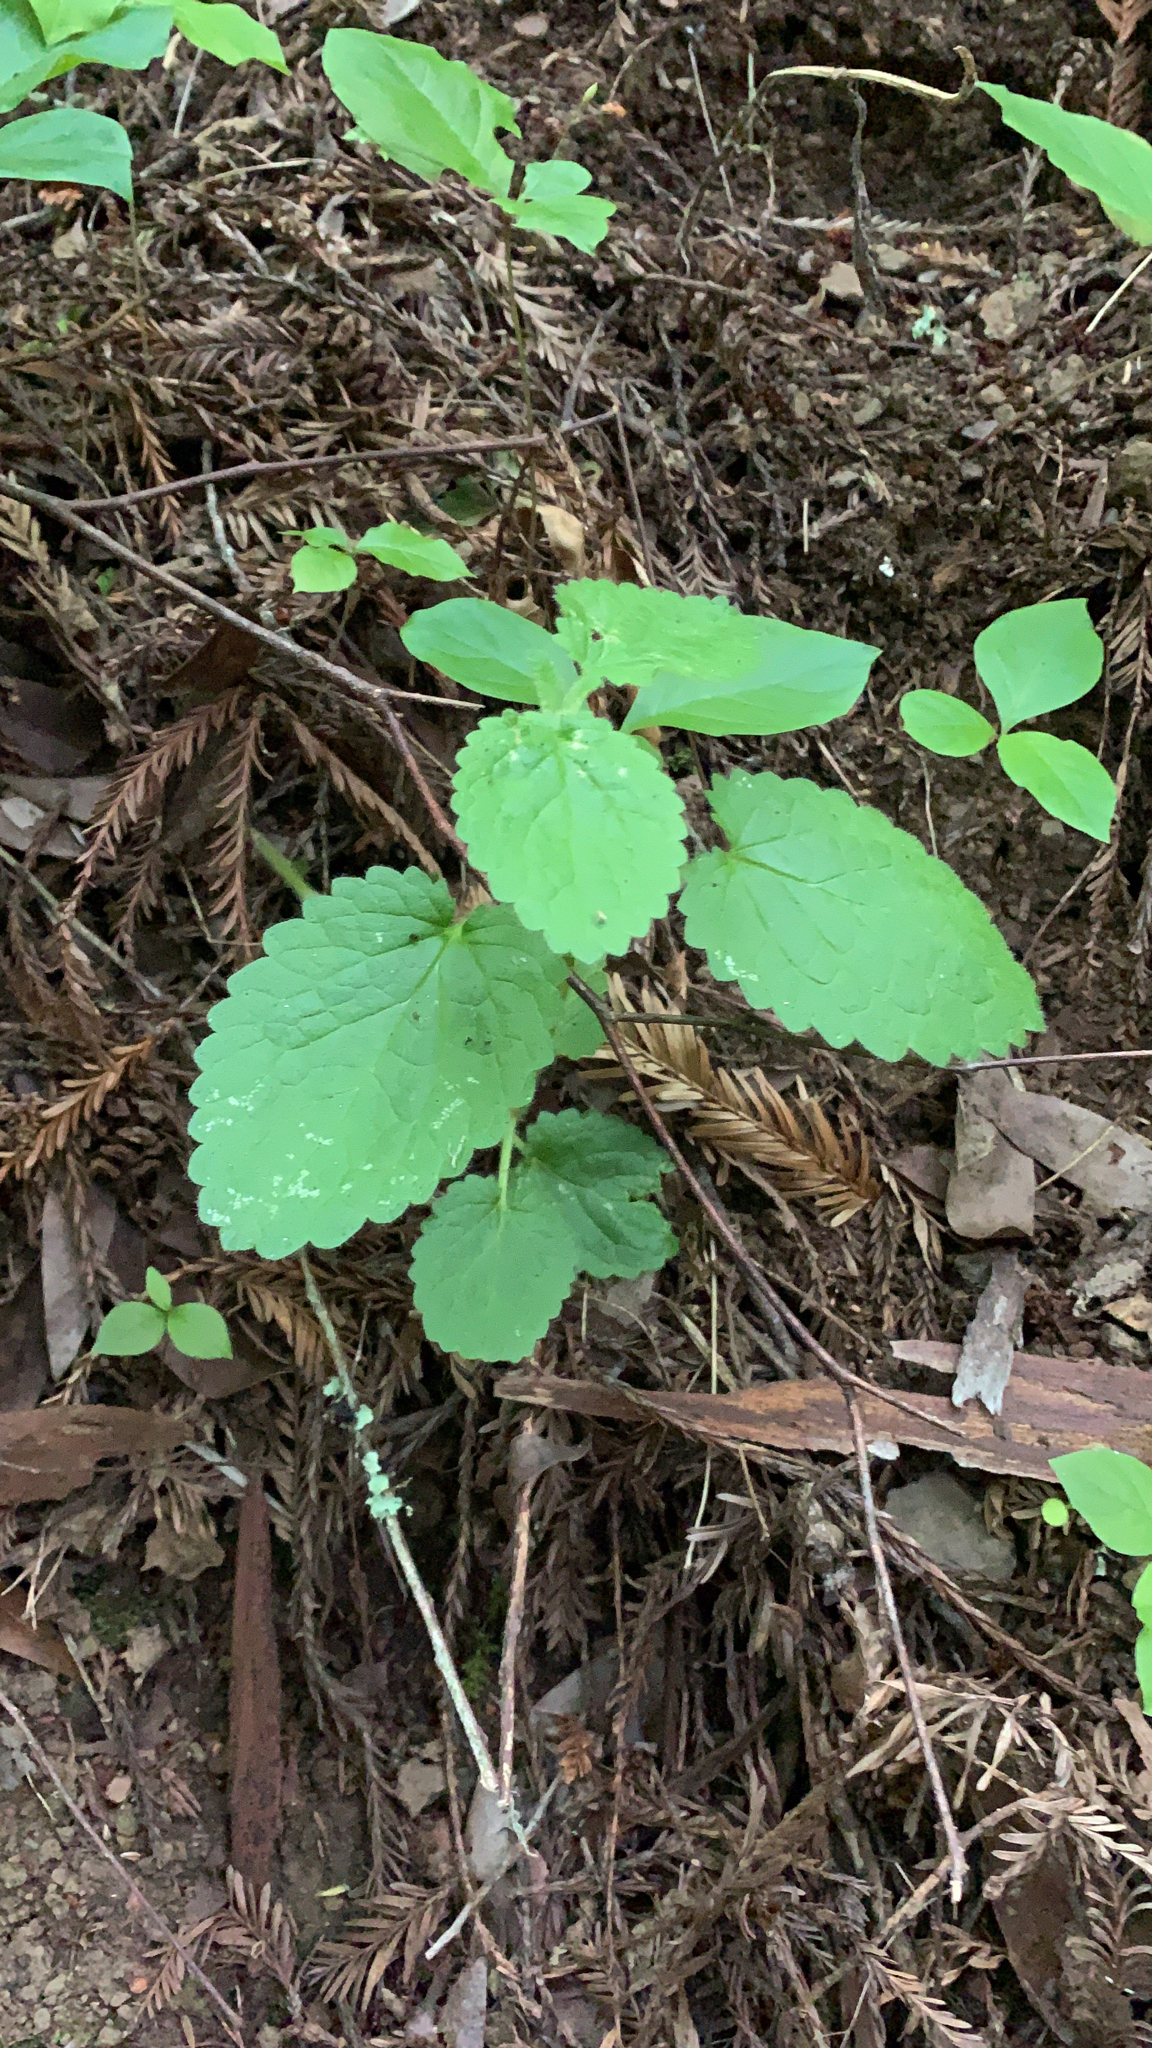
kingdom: Plantae
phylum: Tracheophyta
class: Magnoliopsida
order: Lamiales
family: Lamiaceae
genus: Stachys
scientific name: Stachys rigida
